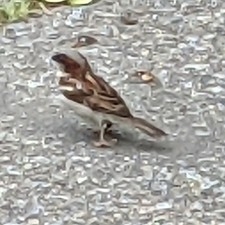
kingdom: Animalia
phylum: Chordata
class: Aves
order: Passeriformes
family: Passeridae
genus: Passer
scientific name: Passer domesticus
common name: House sparrow
